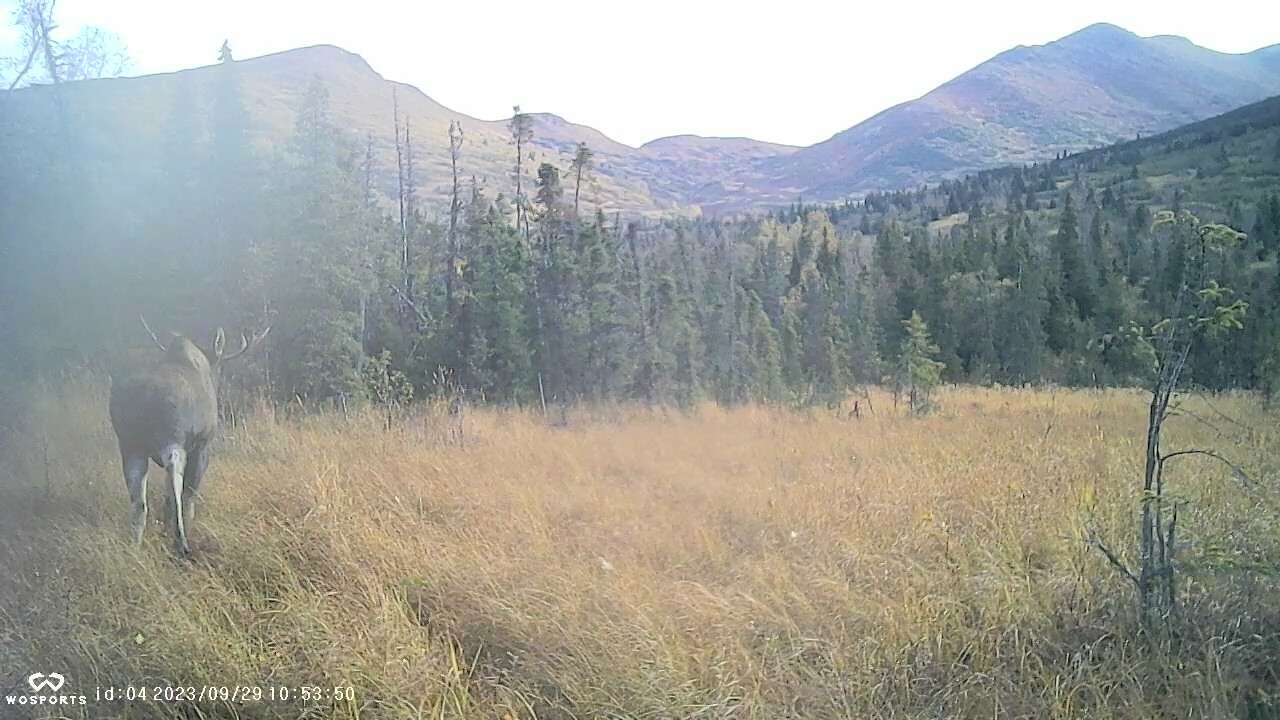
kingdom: Animalia
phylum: Chordata
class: Mammalia
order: Artiodactyla
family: Cervidae
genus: Alces
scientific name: Alces alces
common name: Moose
